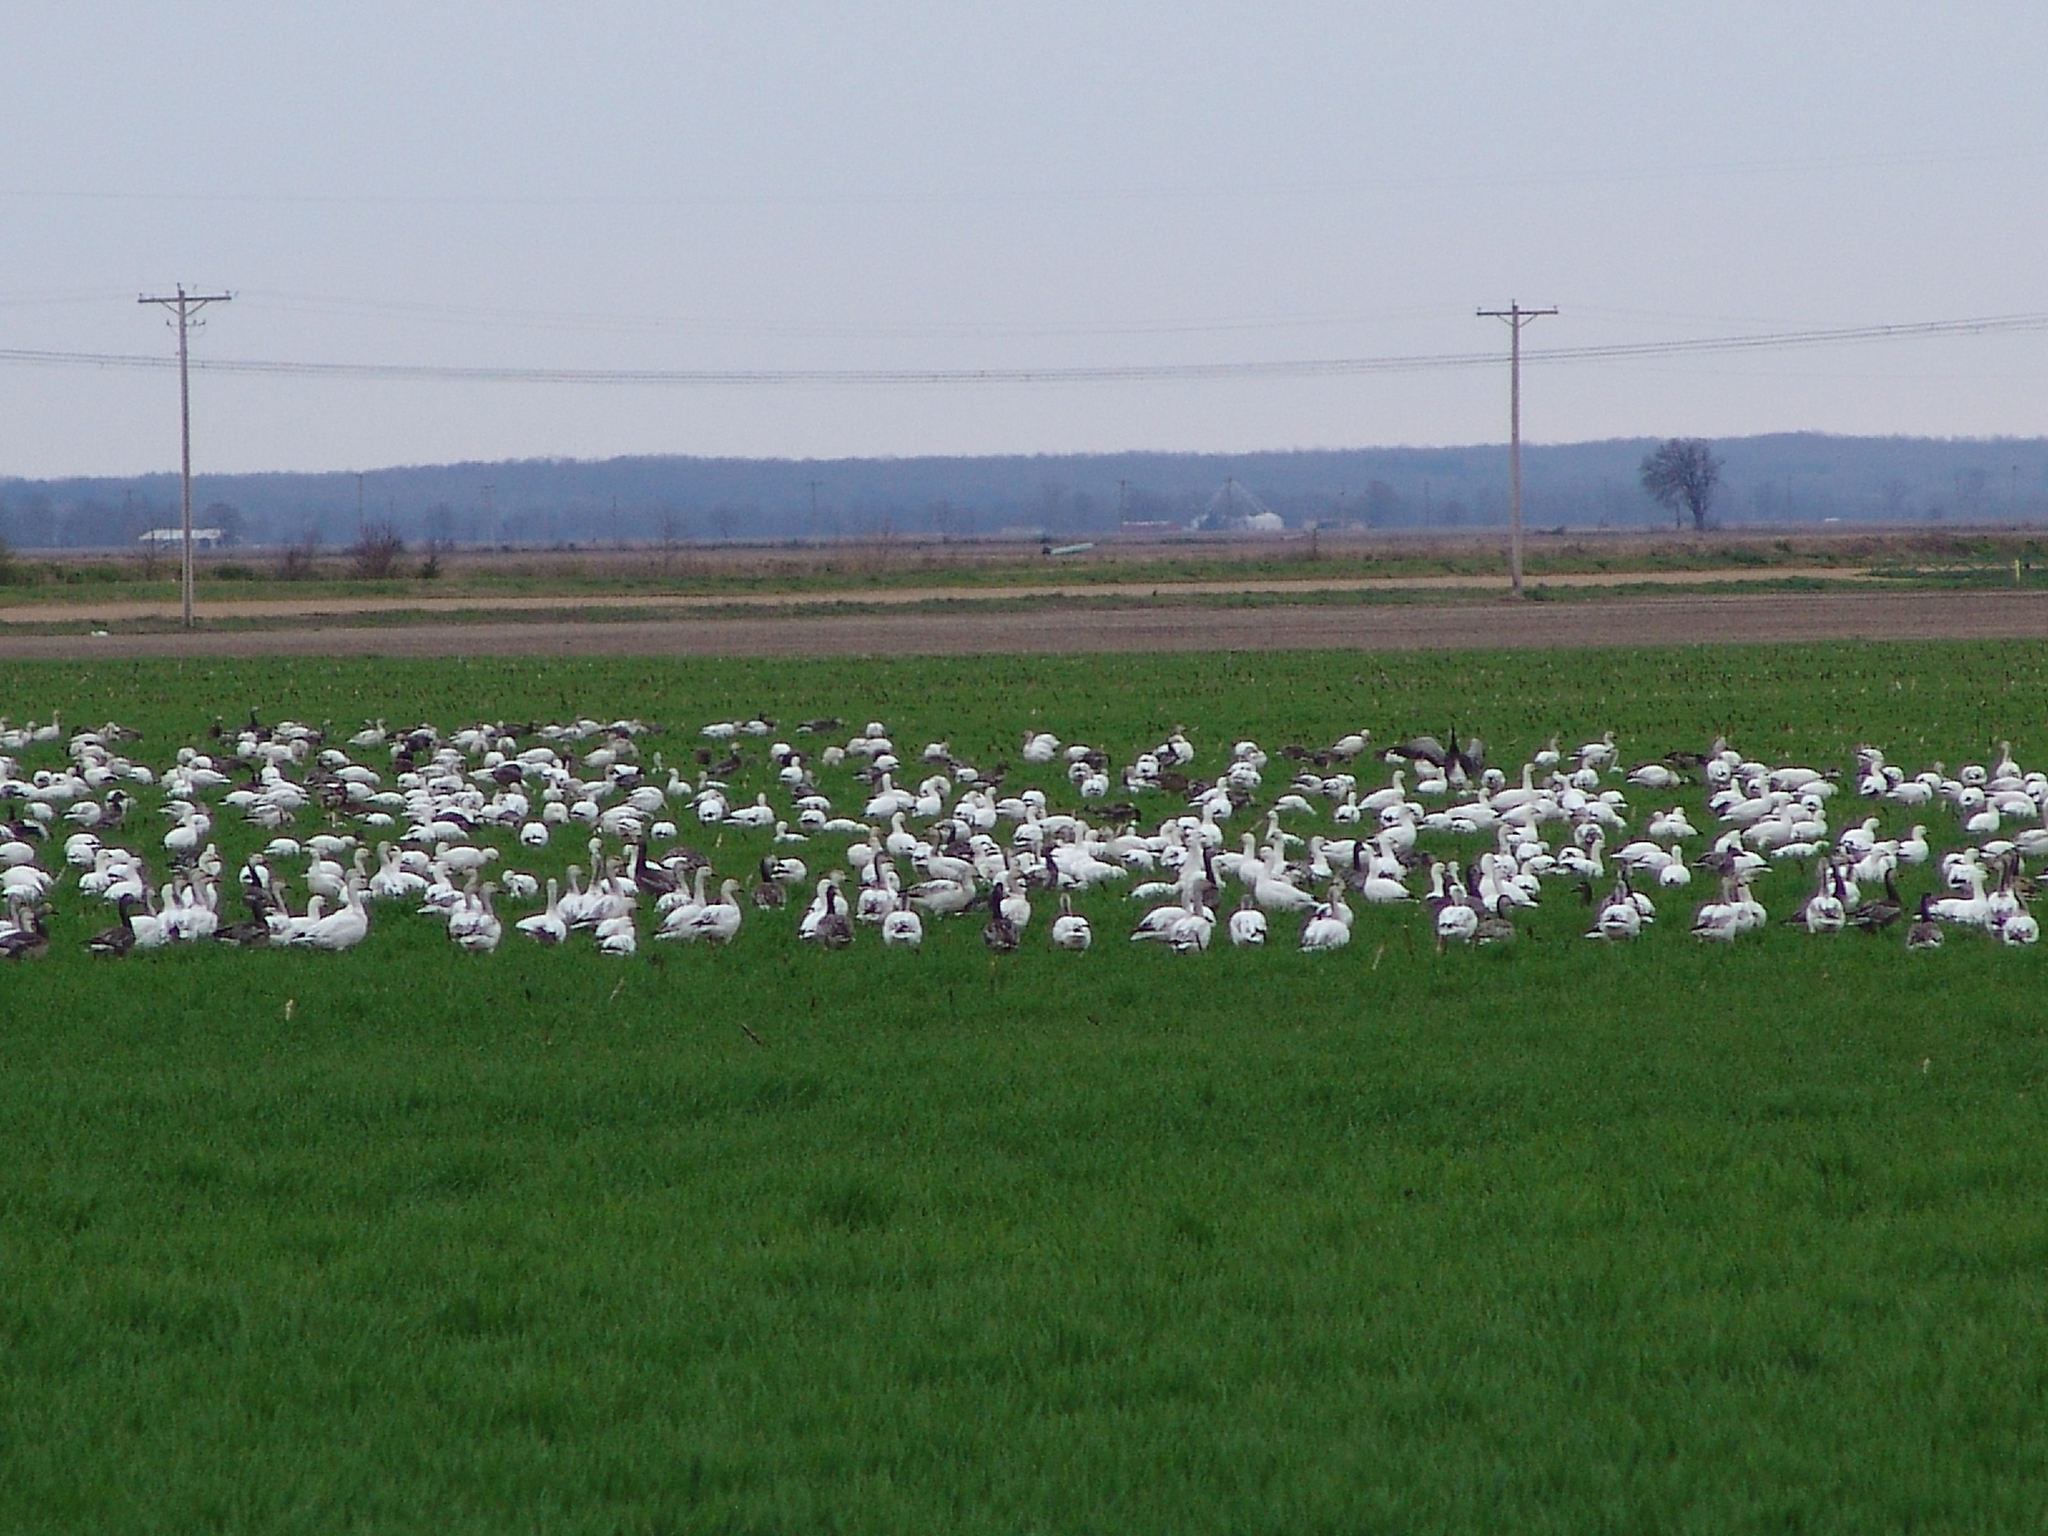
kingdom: Animalia
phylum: Chordata
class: Aves
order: Anseriformes
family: Anatidae
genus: Anser
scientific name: Anser caerulescens
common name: Snow goose
